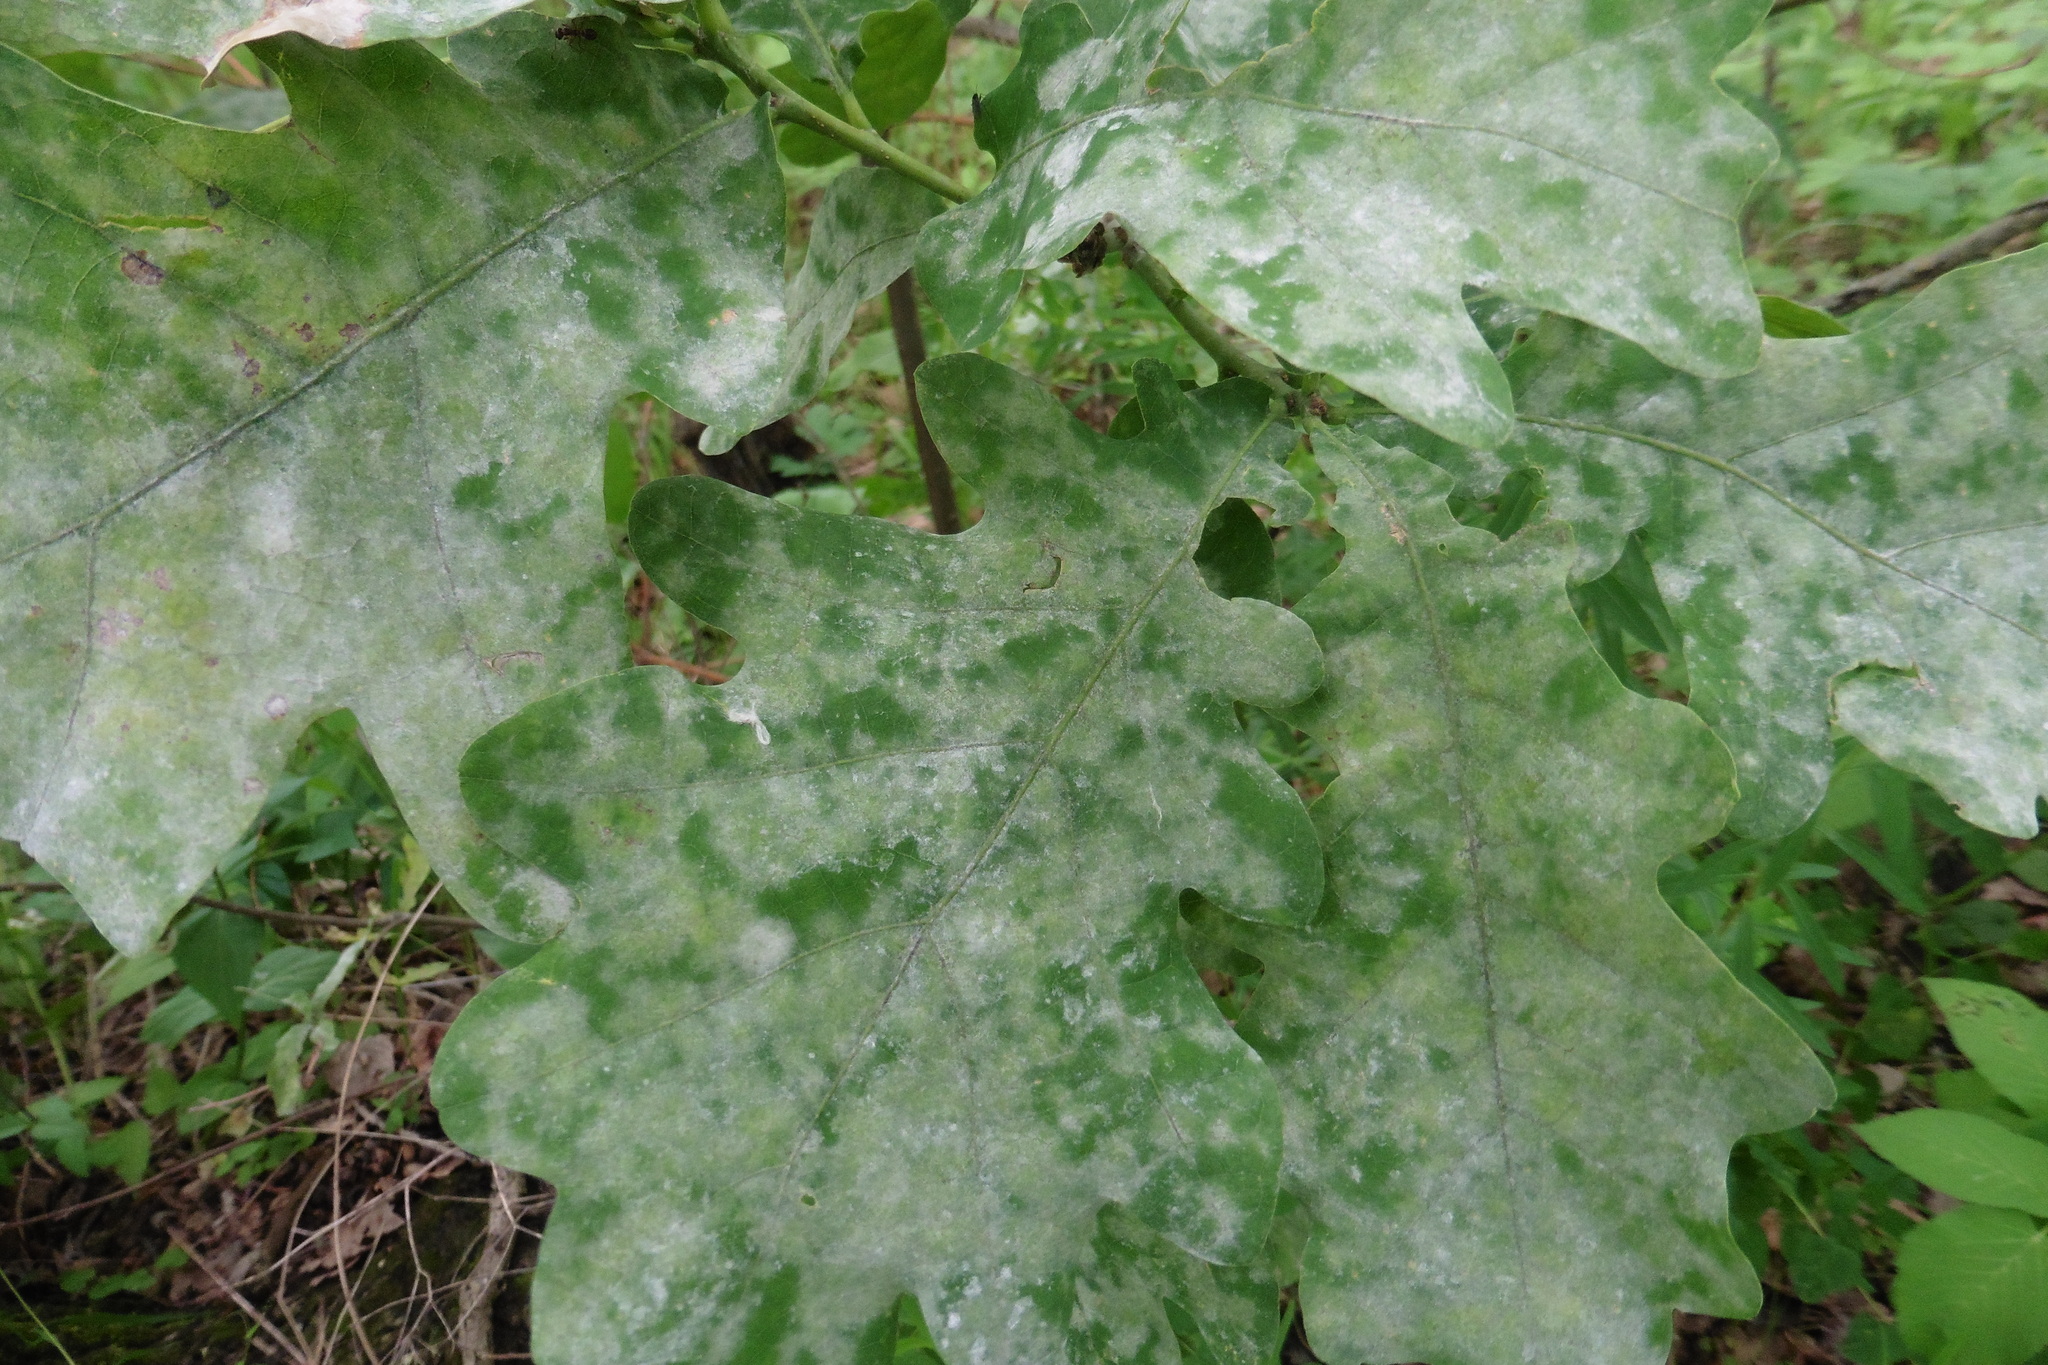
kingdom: Fungi
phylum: Ascomycota
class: Leotiomycetes
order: Helotiales
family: Erysiphaceae
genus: Erysiphe
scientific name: Erysiphe alphitoides
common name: Oak mildew
